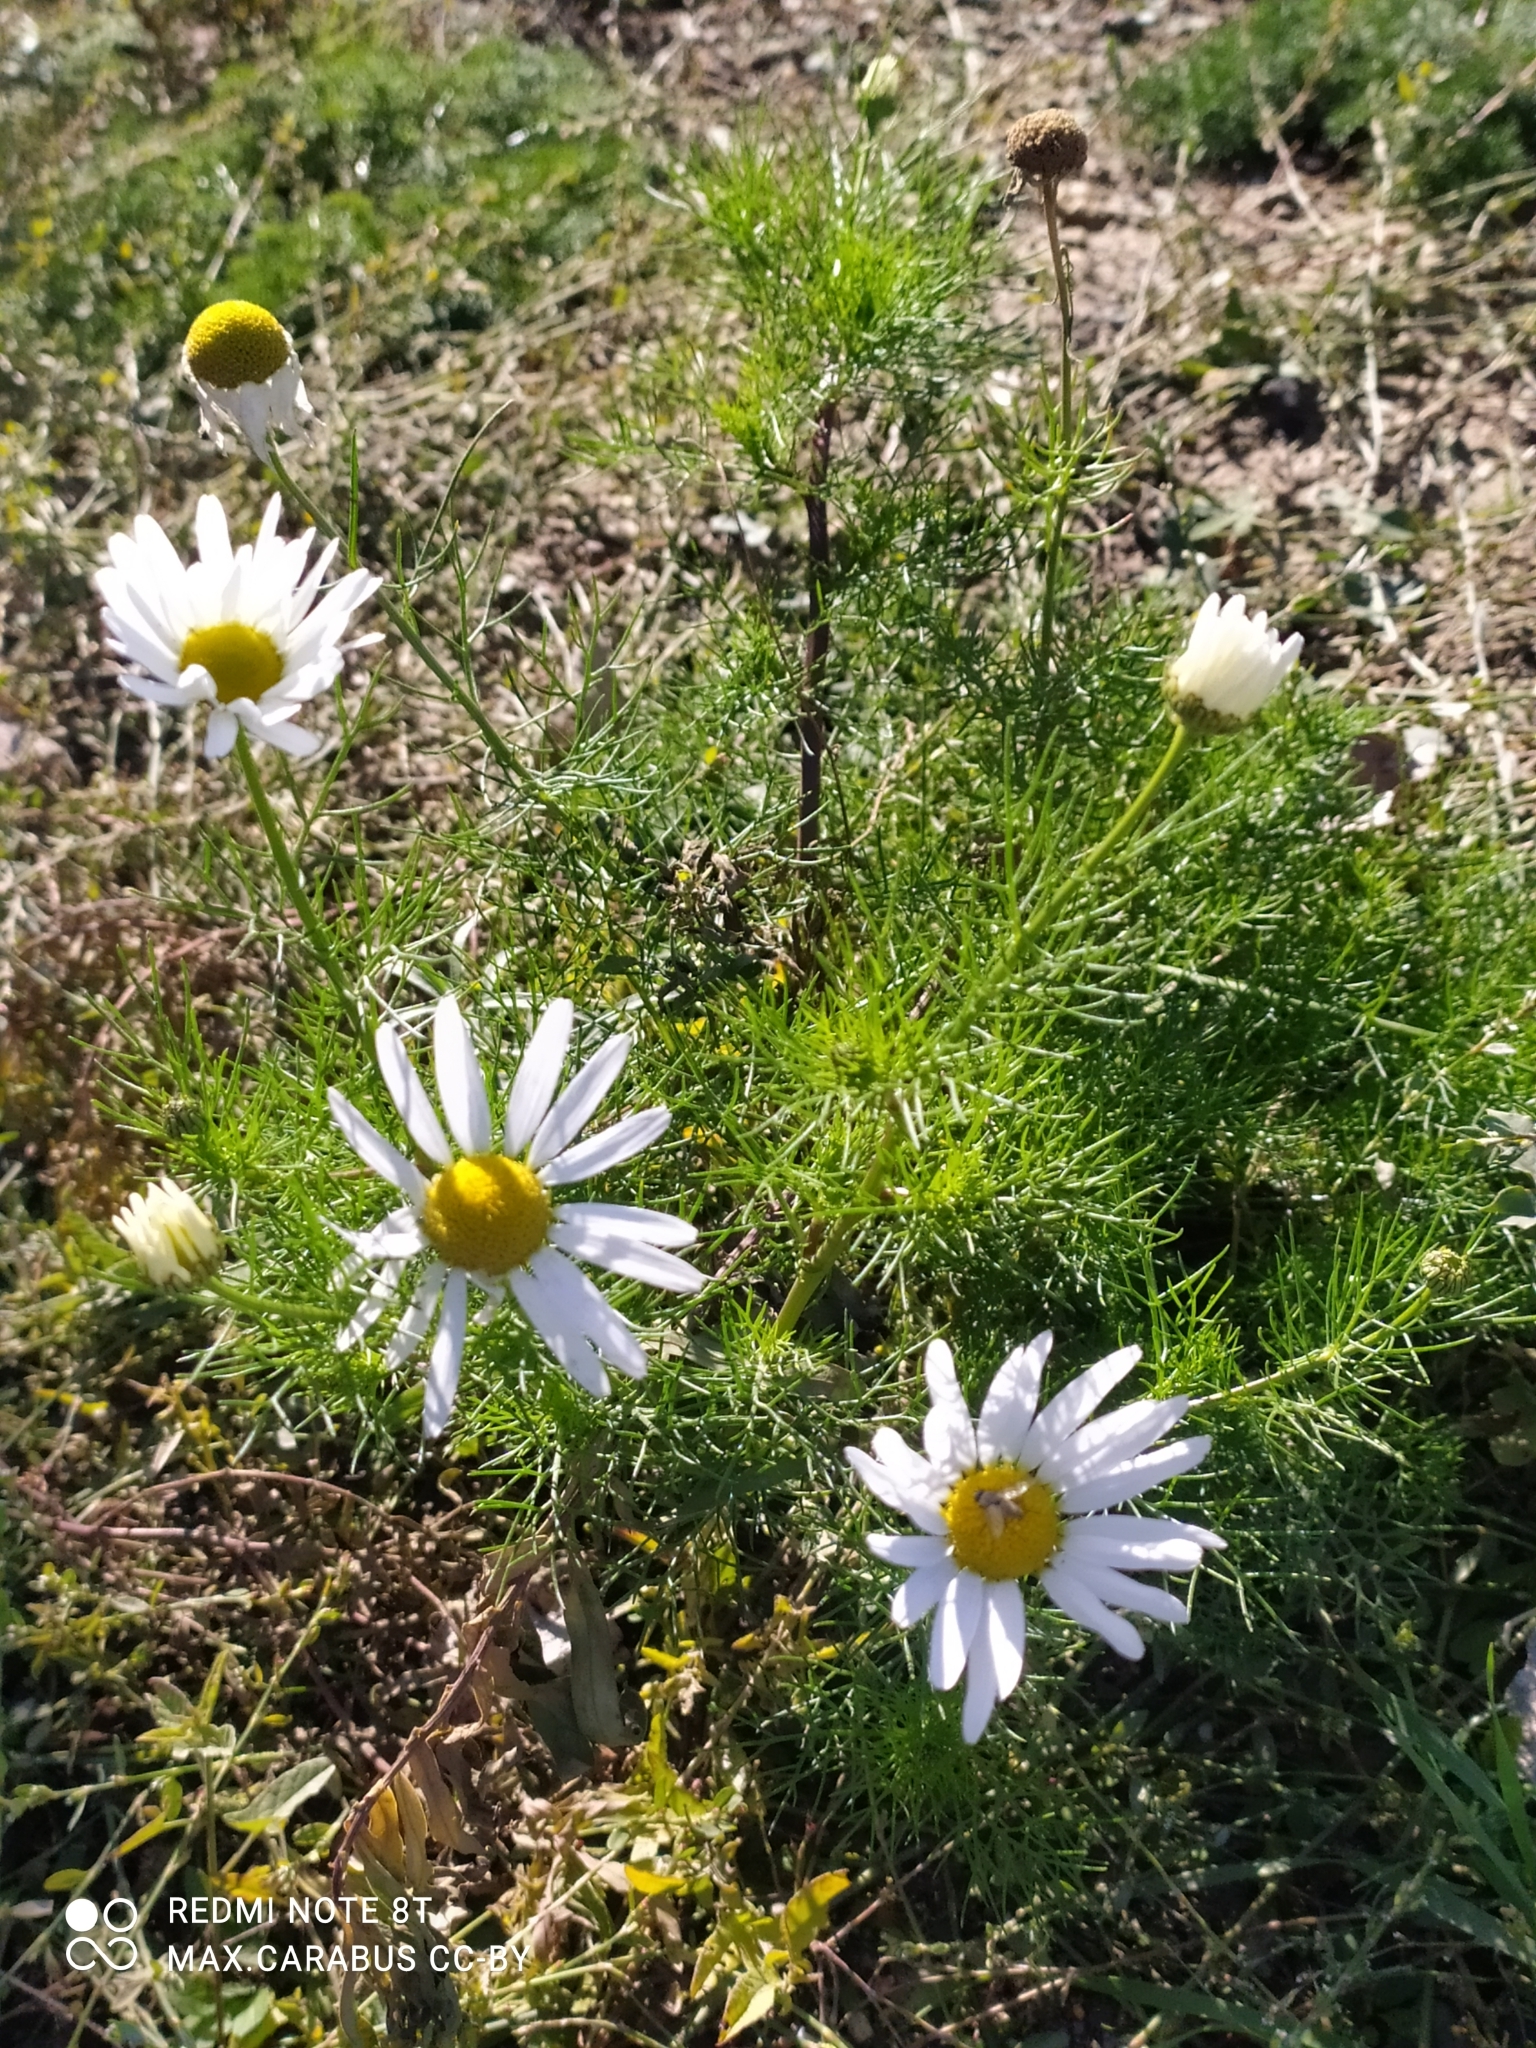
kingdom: Plantae
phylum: Tracheophyta
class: Magnoliopsida
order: Asterales
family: Asteraceae
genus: Tripleurospermum
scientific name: Tripleurospermum inodorum
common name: Scentless mayweed
